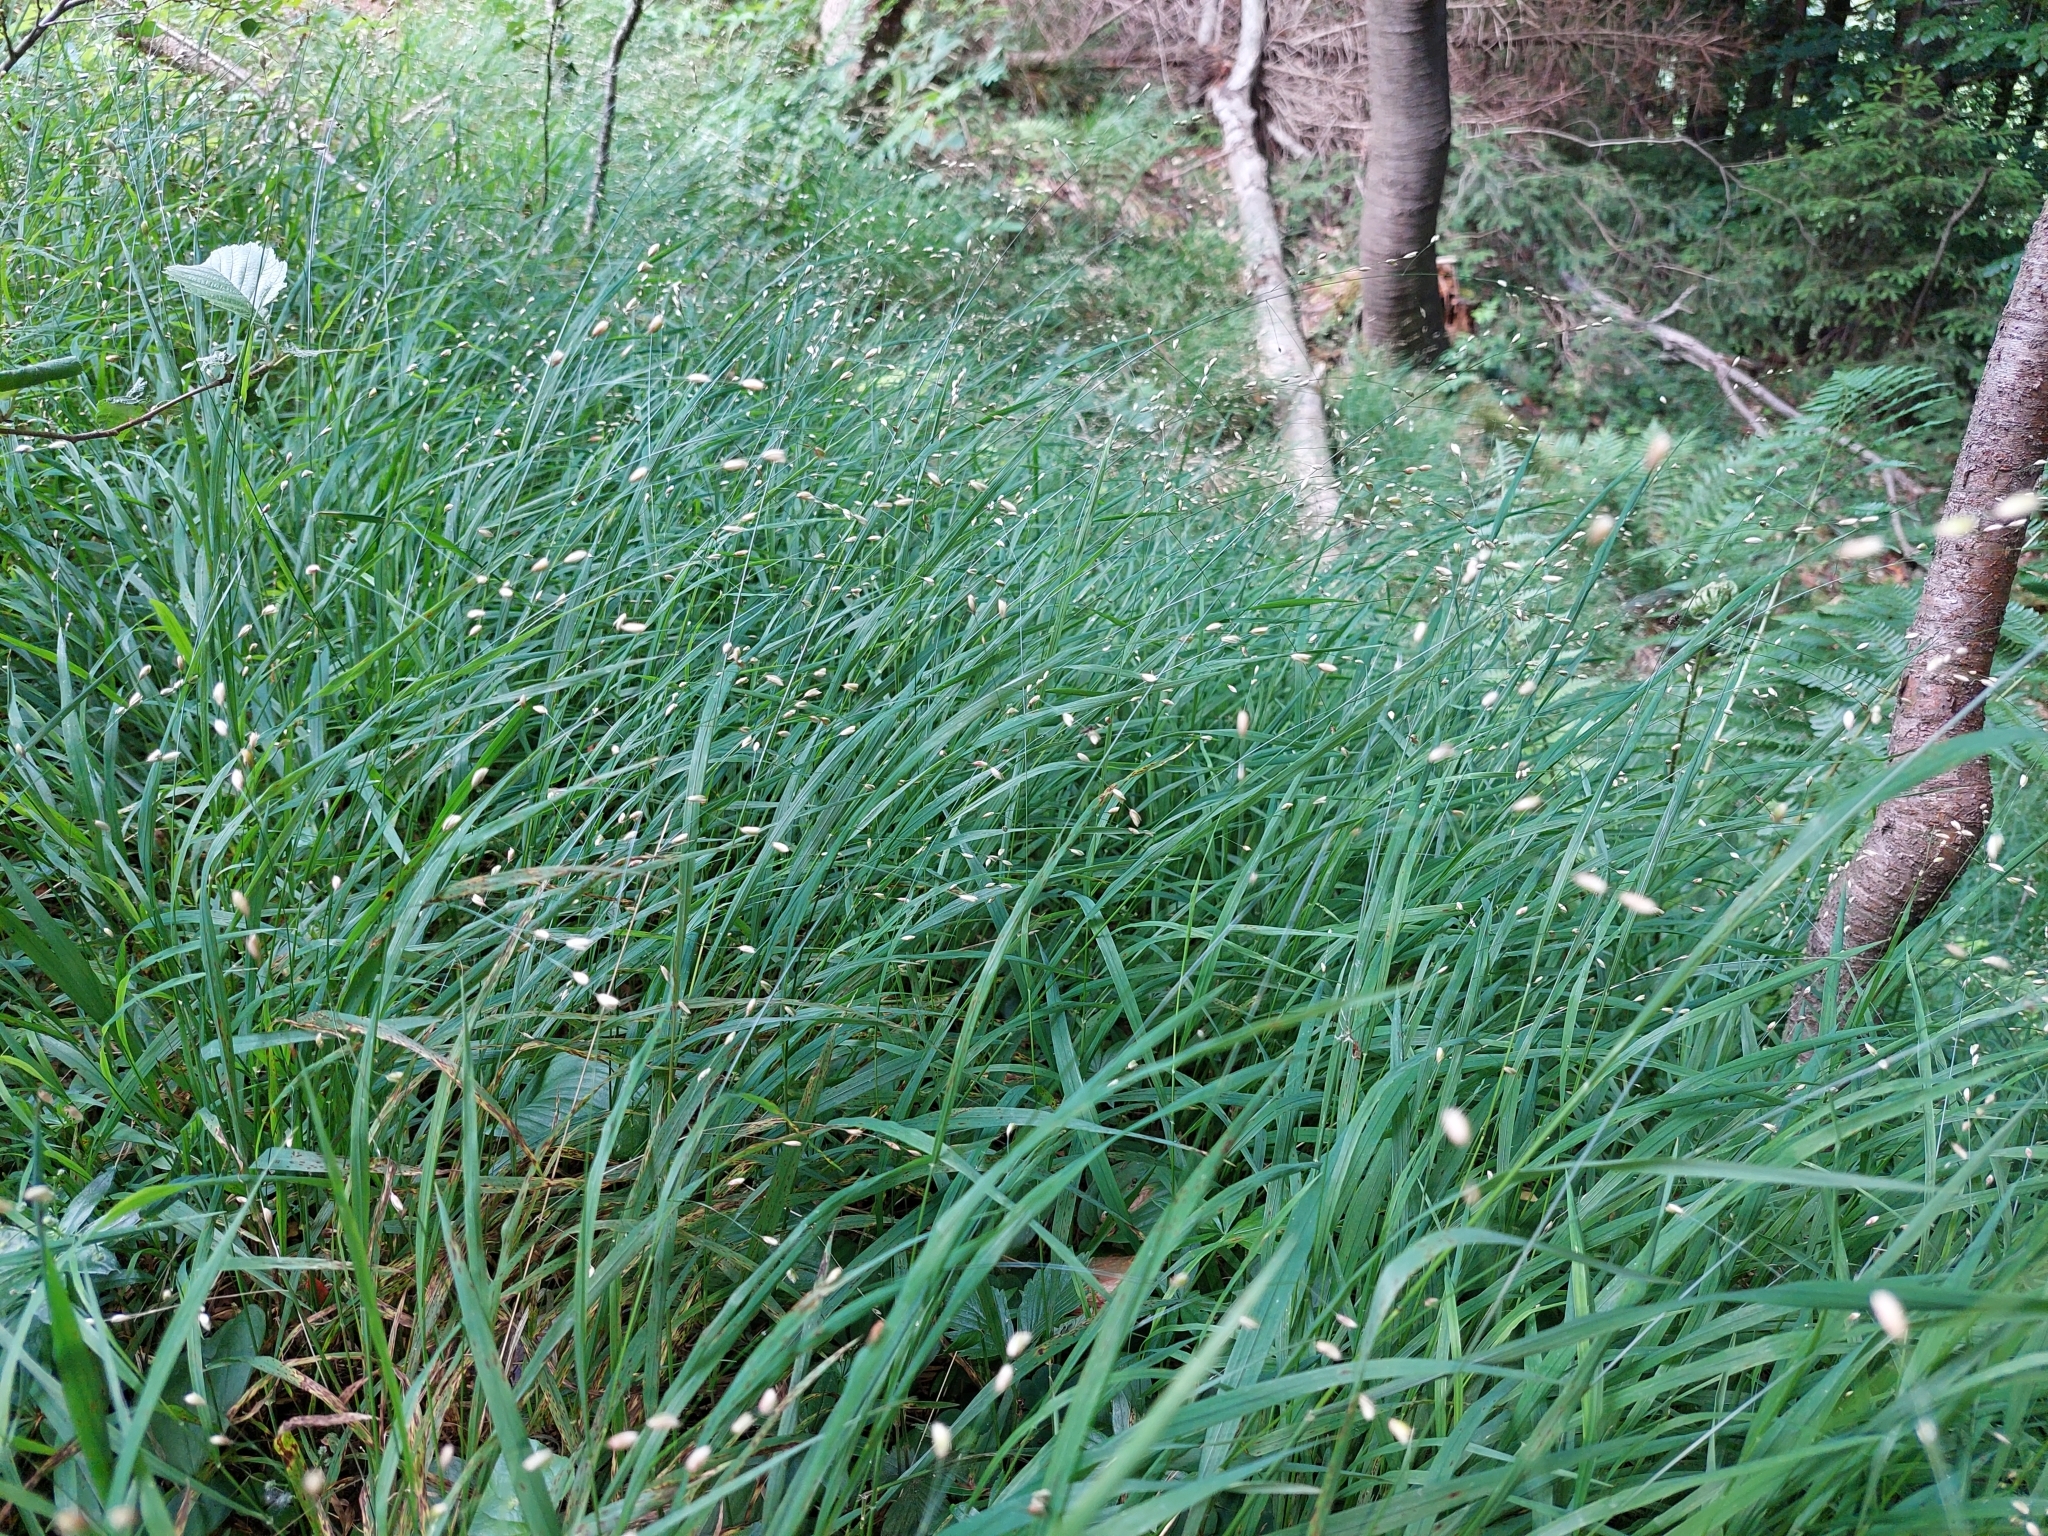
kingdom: Plantae
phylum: Tracheophyta
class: Liliopsida
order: Poales
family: Poaceae
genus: Melica
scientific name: Melica uniflora
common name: Wood melick
